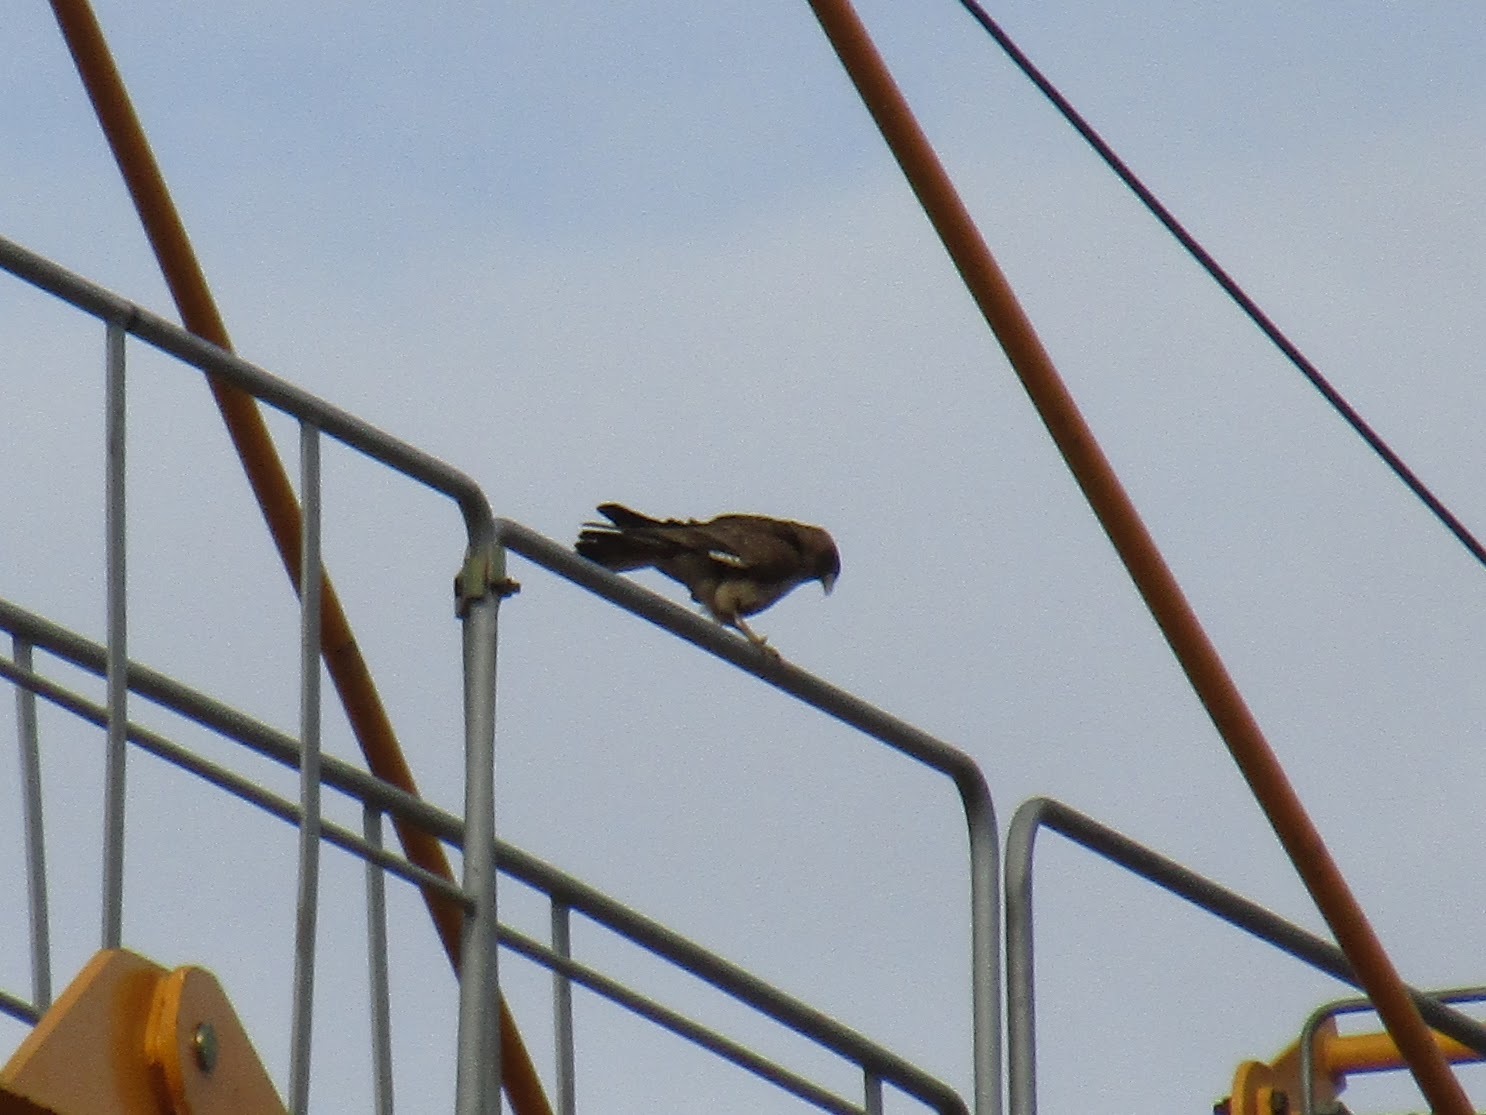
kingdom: Animalia
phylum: Chordata
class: Aves
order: Falconiformes
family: Falconidae
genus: Daptrius
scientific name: Daptrius
